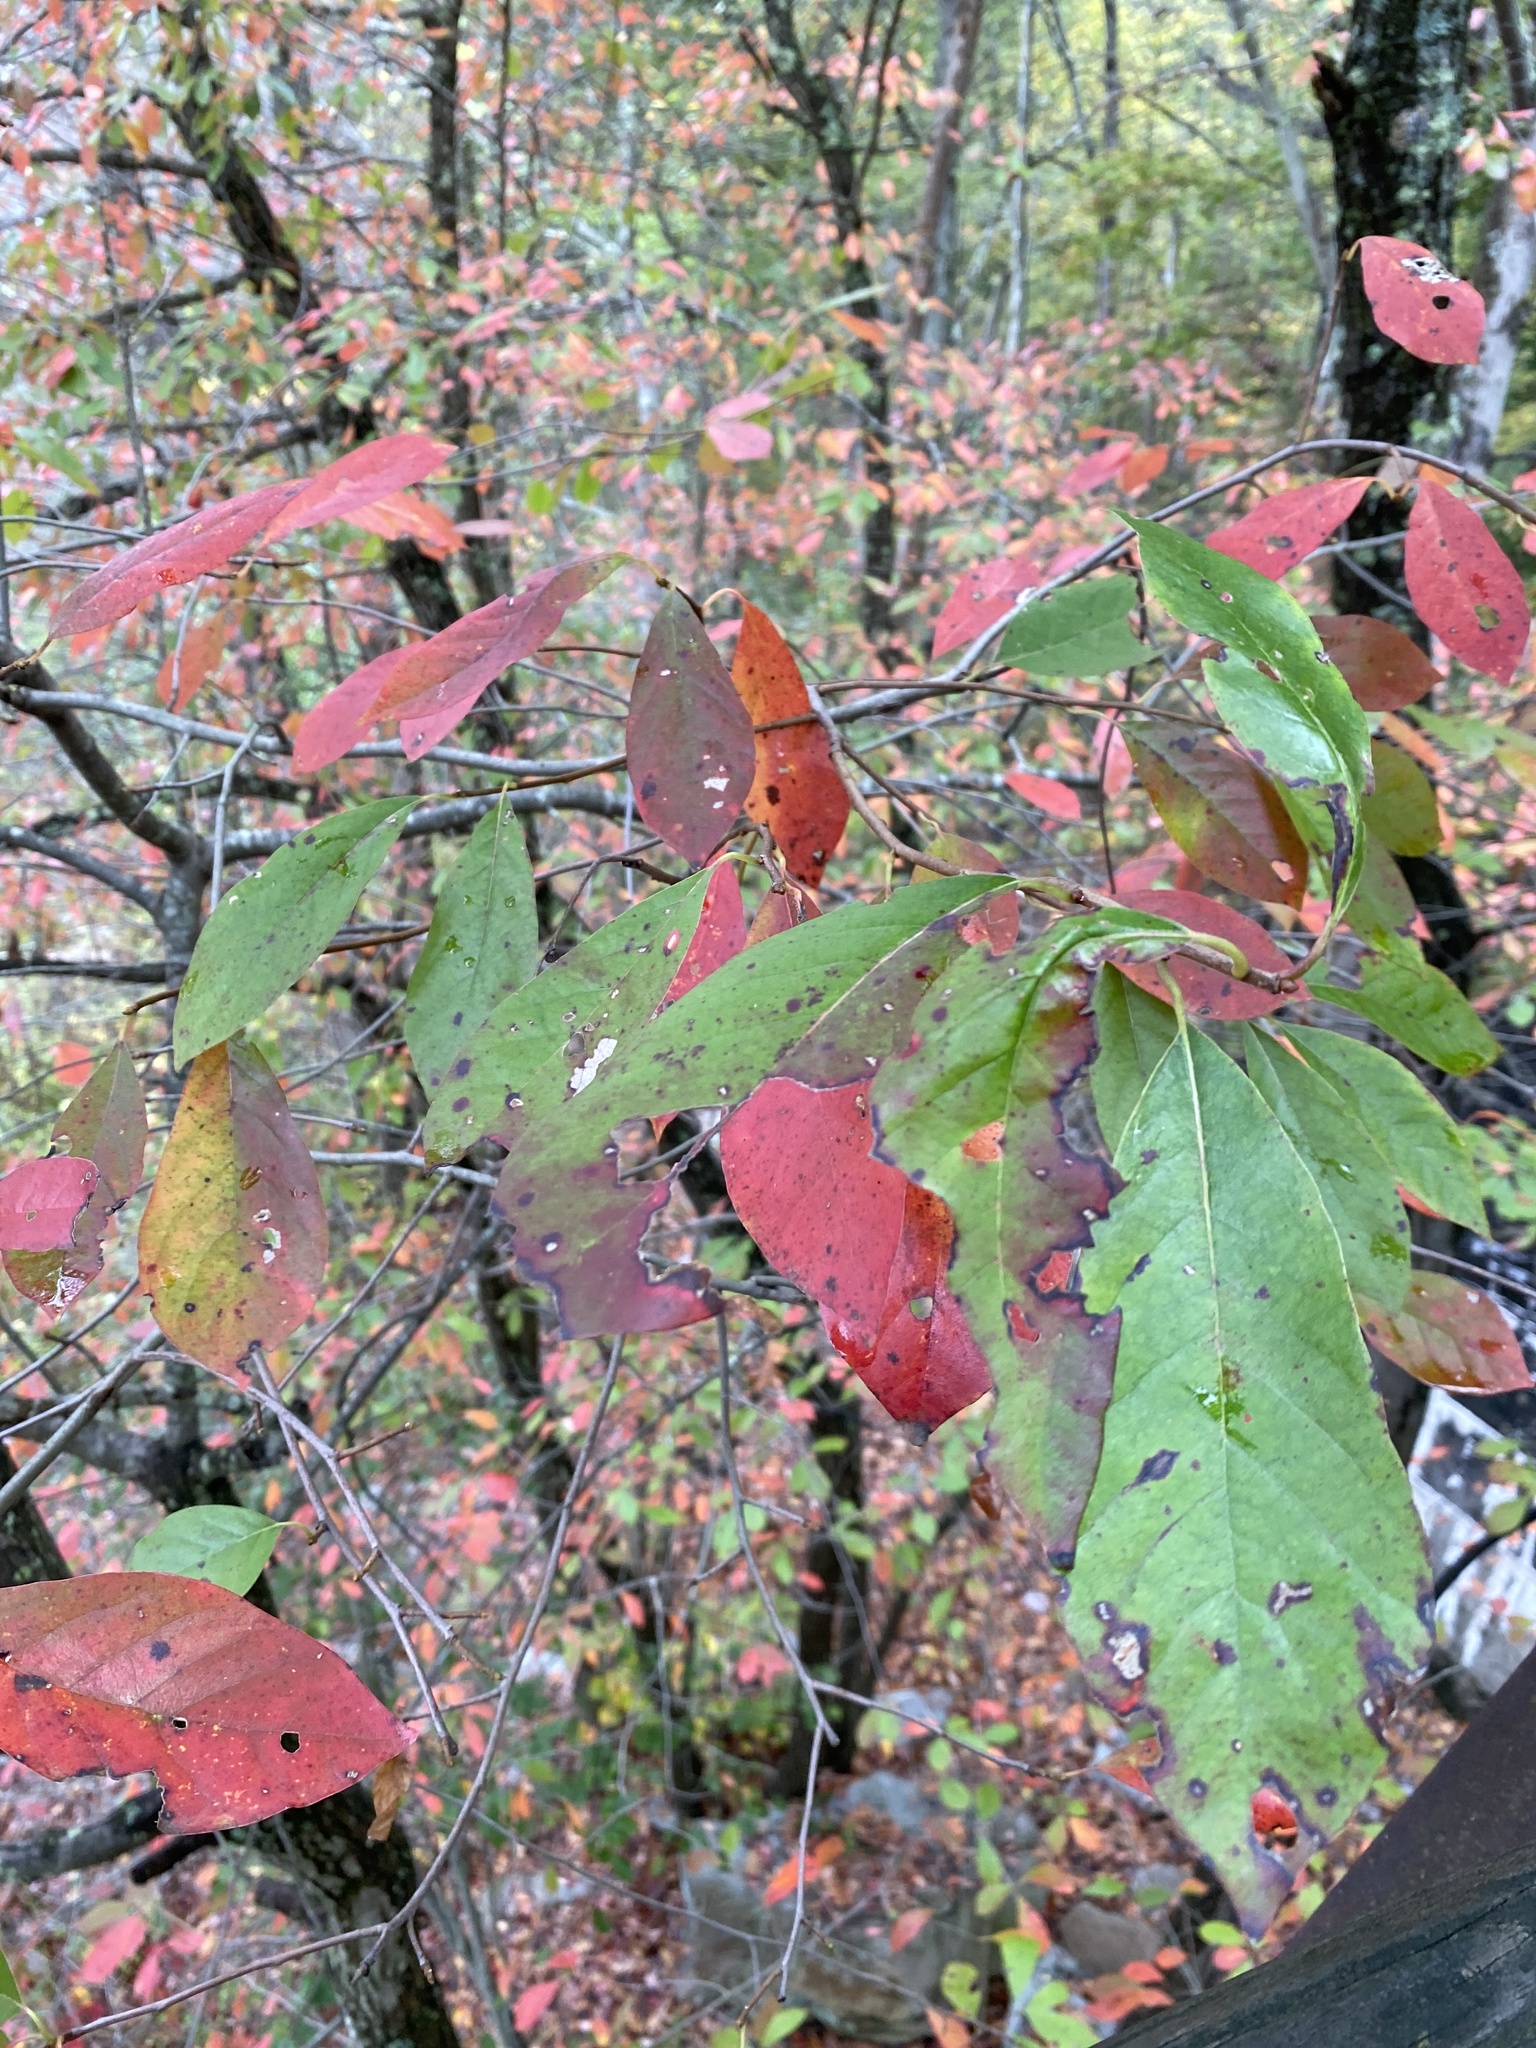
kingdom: Plantae
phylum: Tracheophyta
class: Magnoliopsida
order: Cornales
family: Nyssaceae
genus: Nyssa
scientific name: Nyssa sylvatica
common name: Black tupelo
